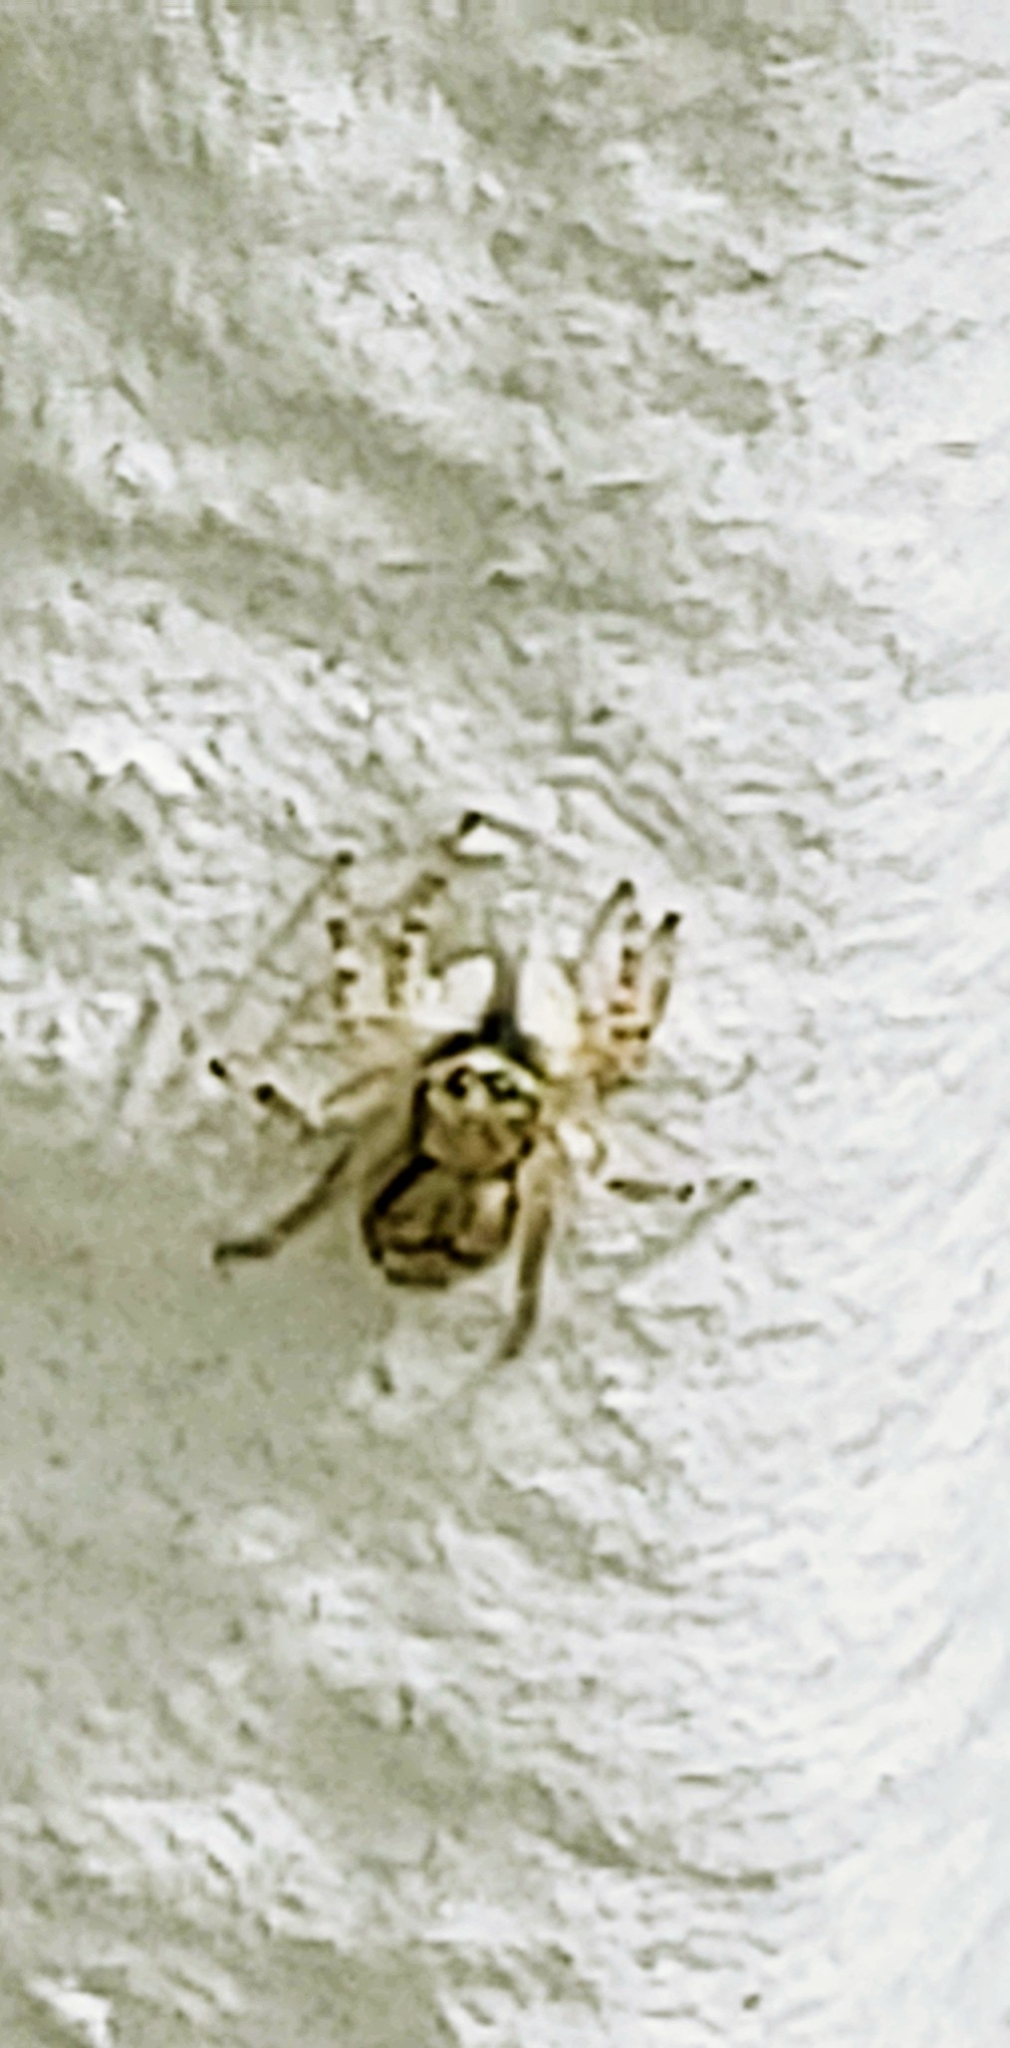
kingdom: Animalia
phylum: Arthropoda
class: Arachnida
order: Araneae
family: Salticidae
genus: Menemerus
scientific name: Menemerus bivittatus
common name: Gray wall jumper
